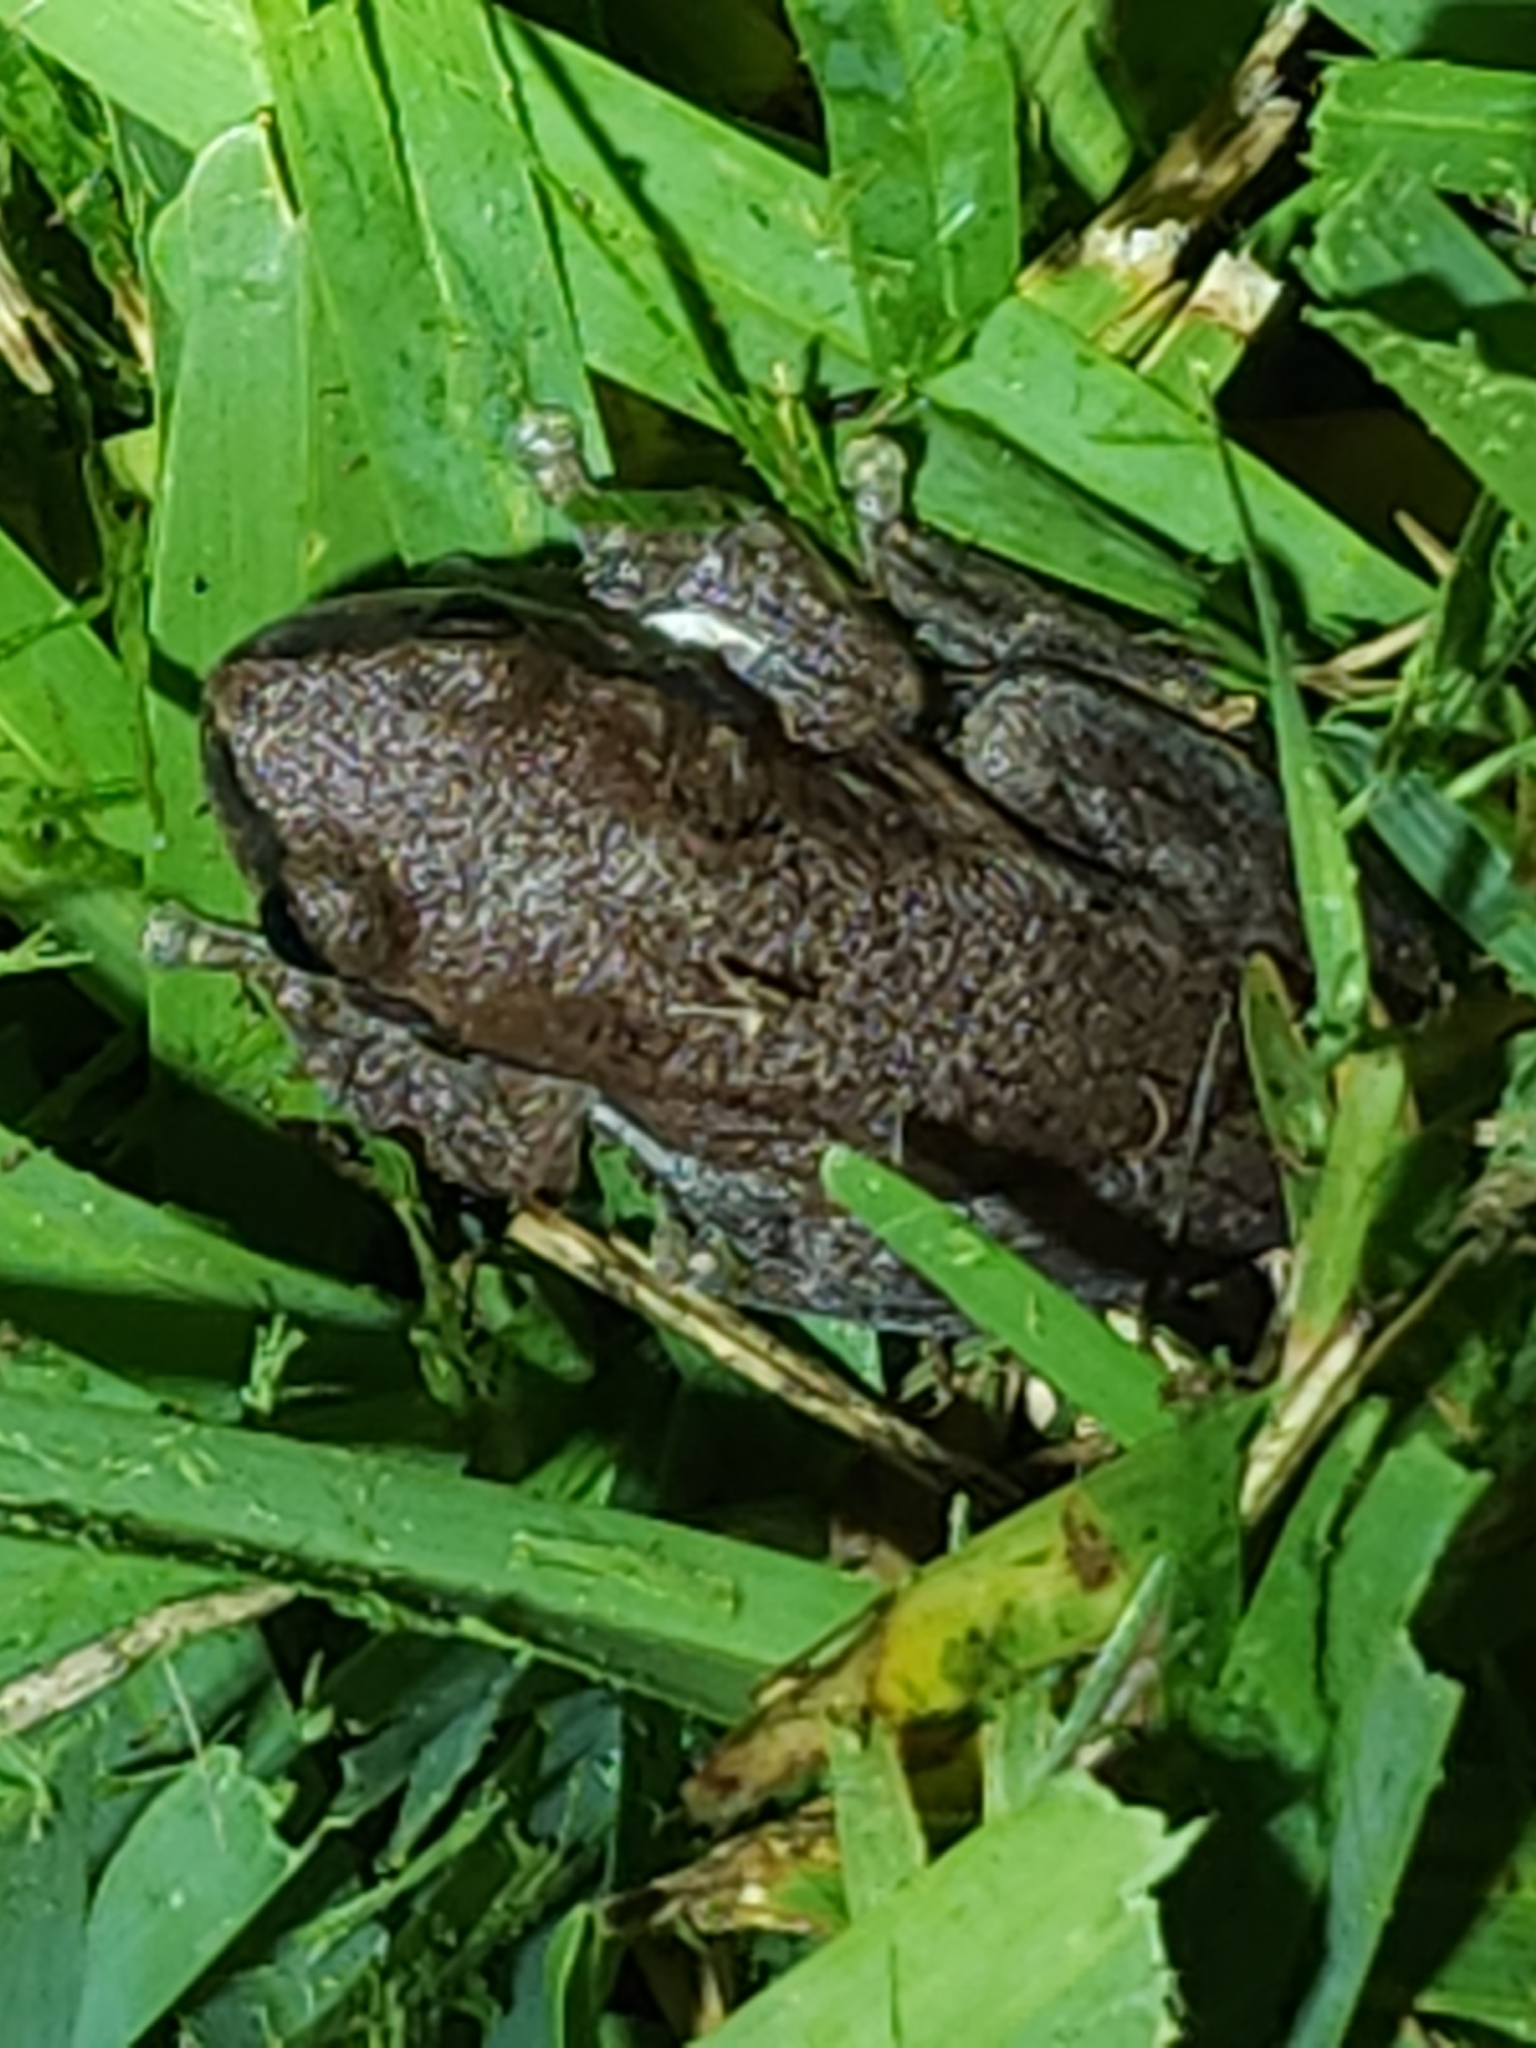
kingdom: Animalia
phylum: Chordata
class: Amphibia
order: Anura
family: Pelodryadidae
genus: Litoria
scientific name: Litoria rubella
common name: Desert tree frog
